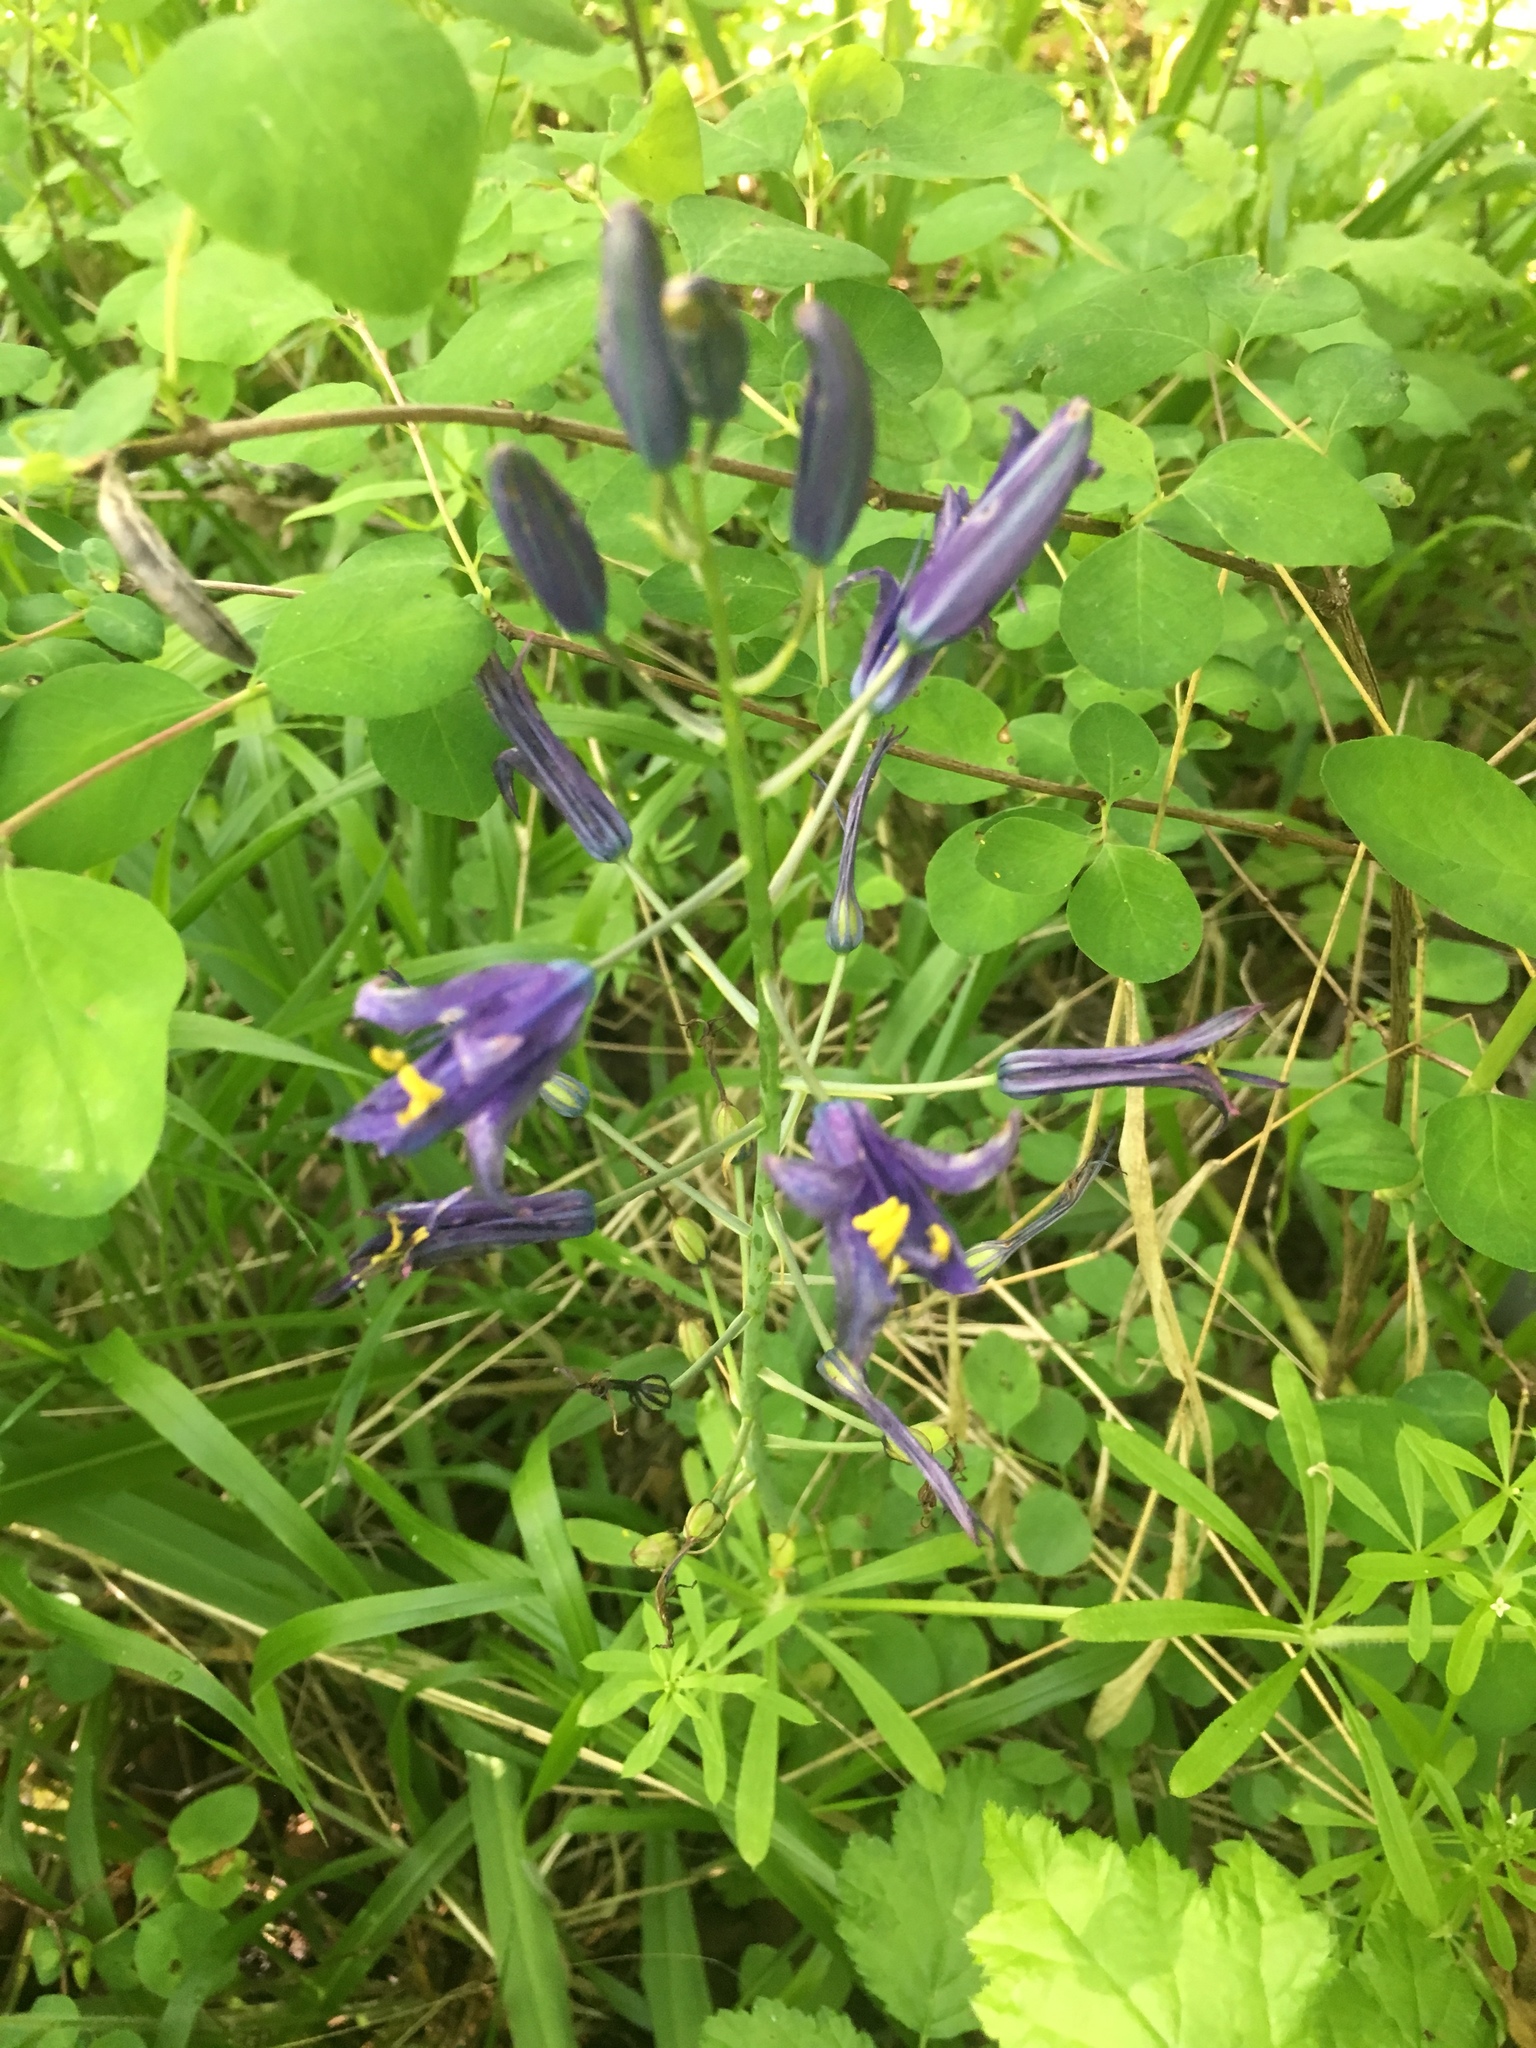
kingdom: Plantae
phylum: Tracheophyta
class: Liliopsida
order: Asparagales
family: Asparagaceae
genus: Camassia
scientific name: Camassia leichtlinii
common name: Leichtlin's camas
